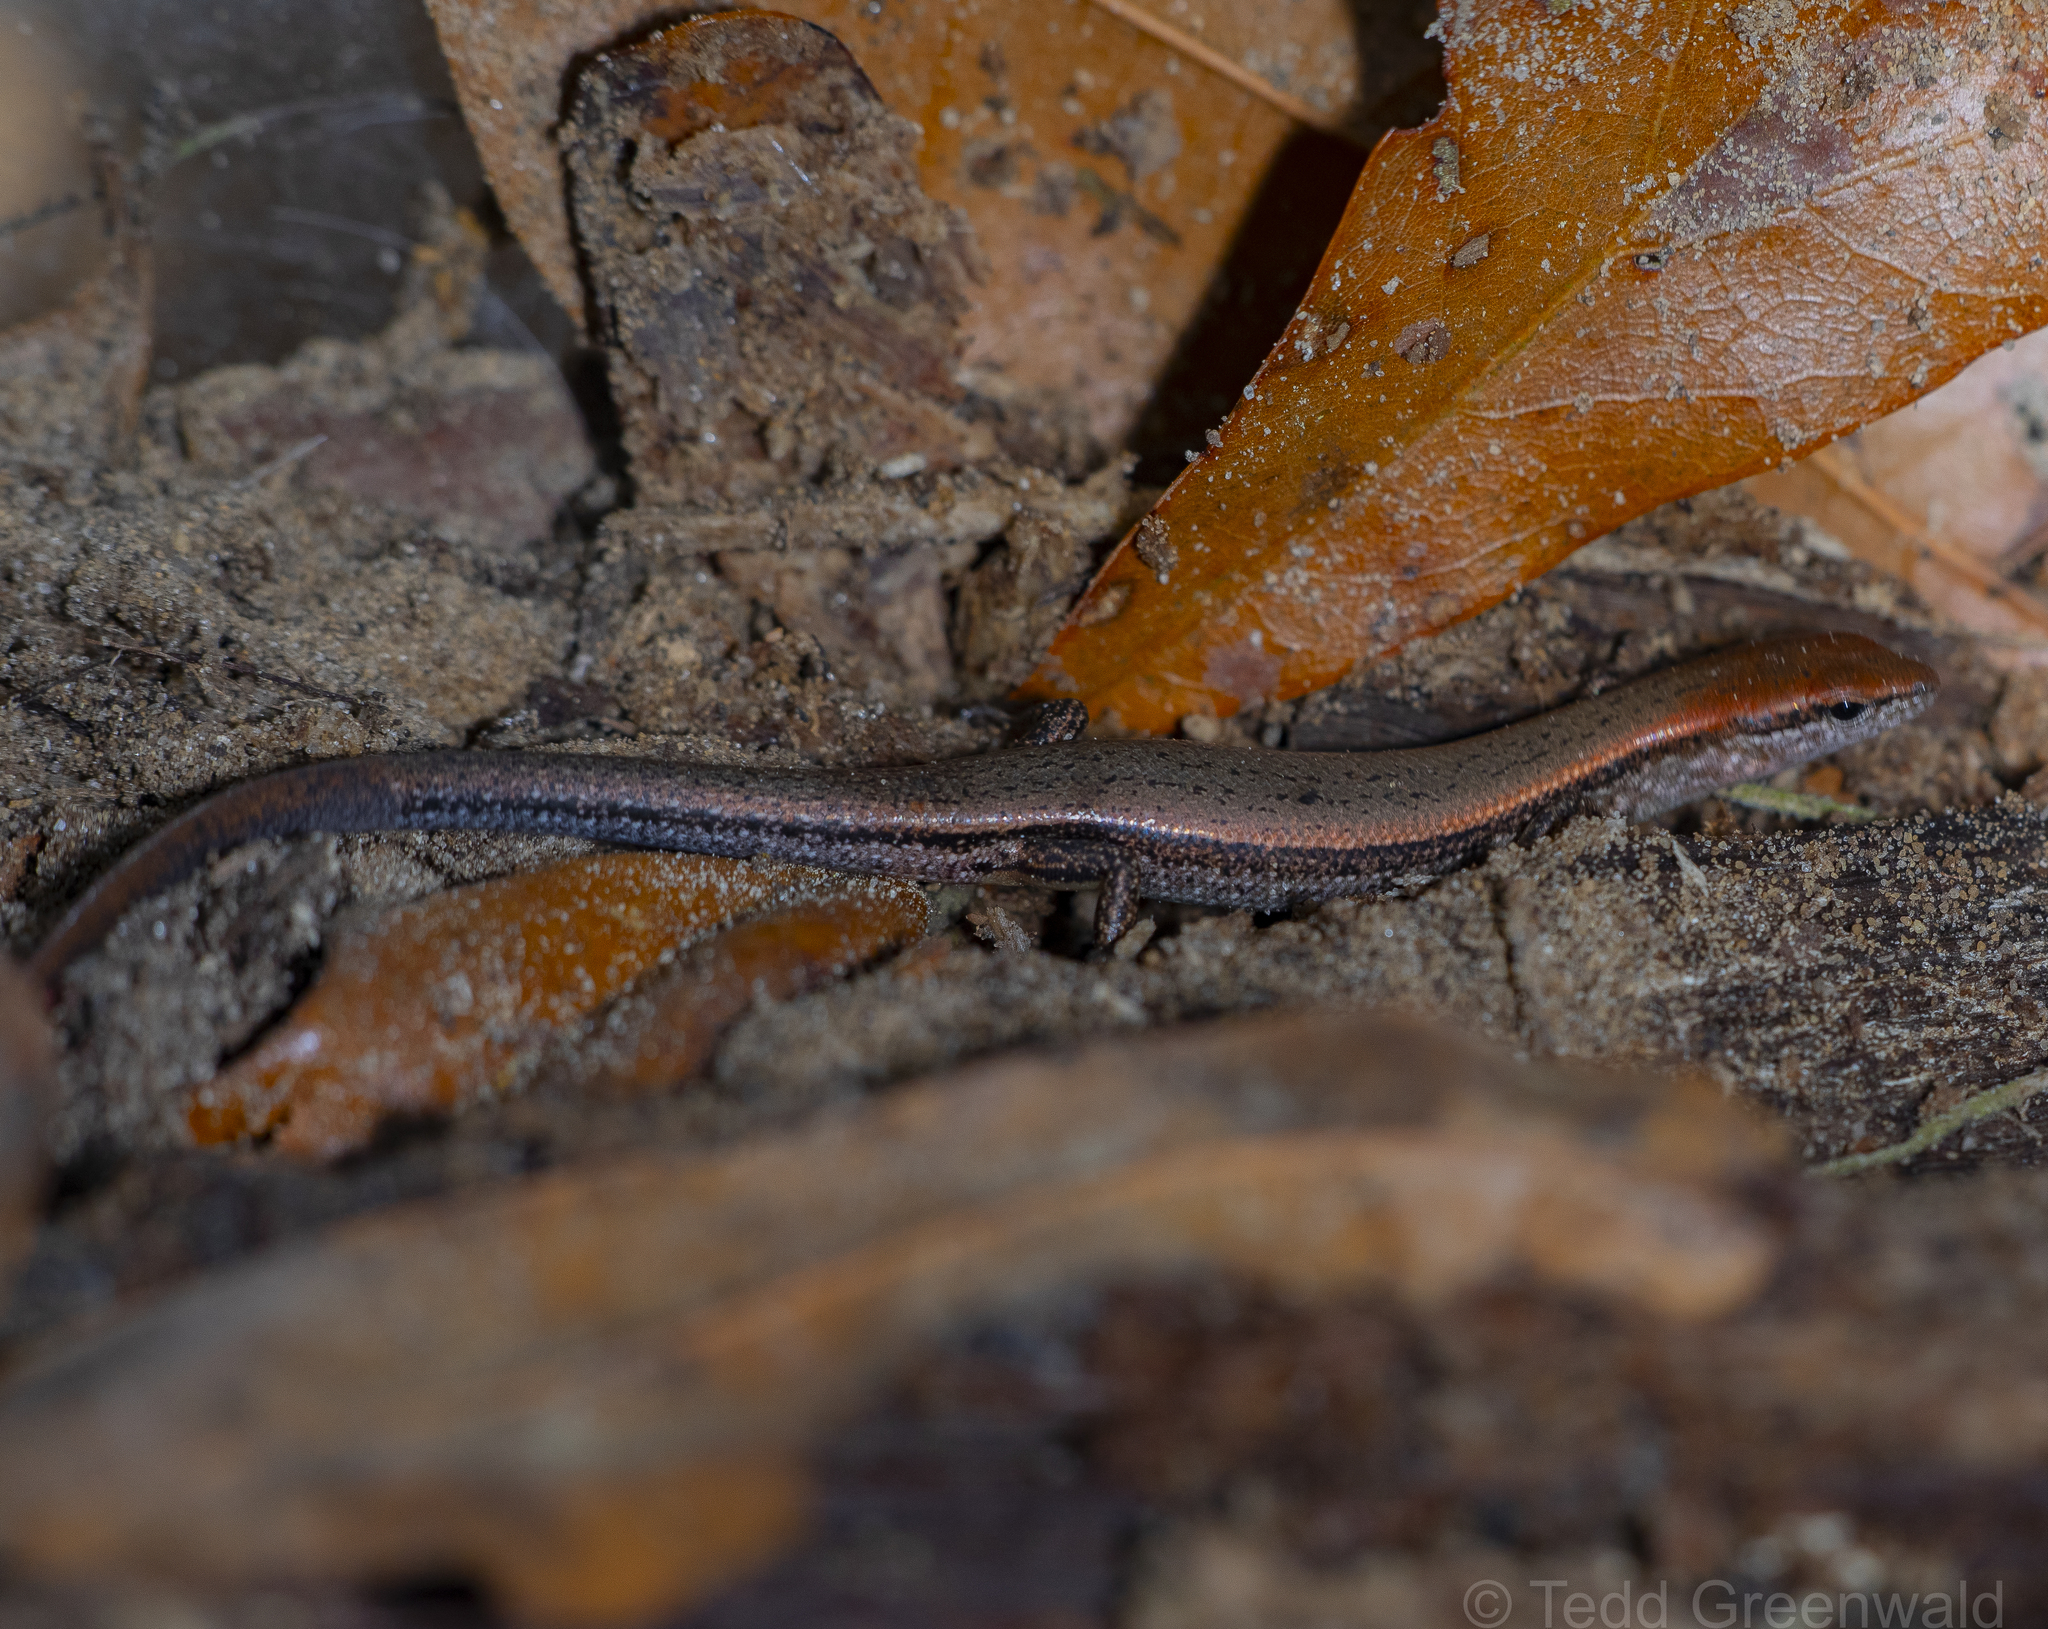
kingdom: Animalia
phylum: Chordata
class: Squamata
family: Scincidae
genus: Scincella
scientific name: Scincella lateralis
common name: Ground skink
